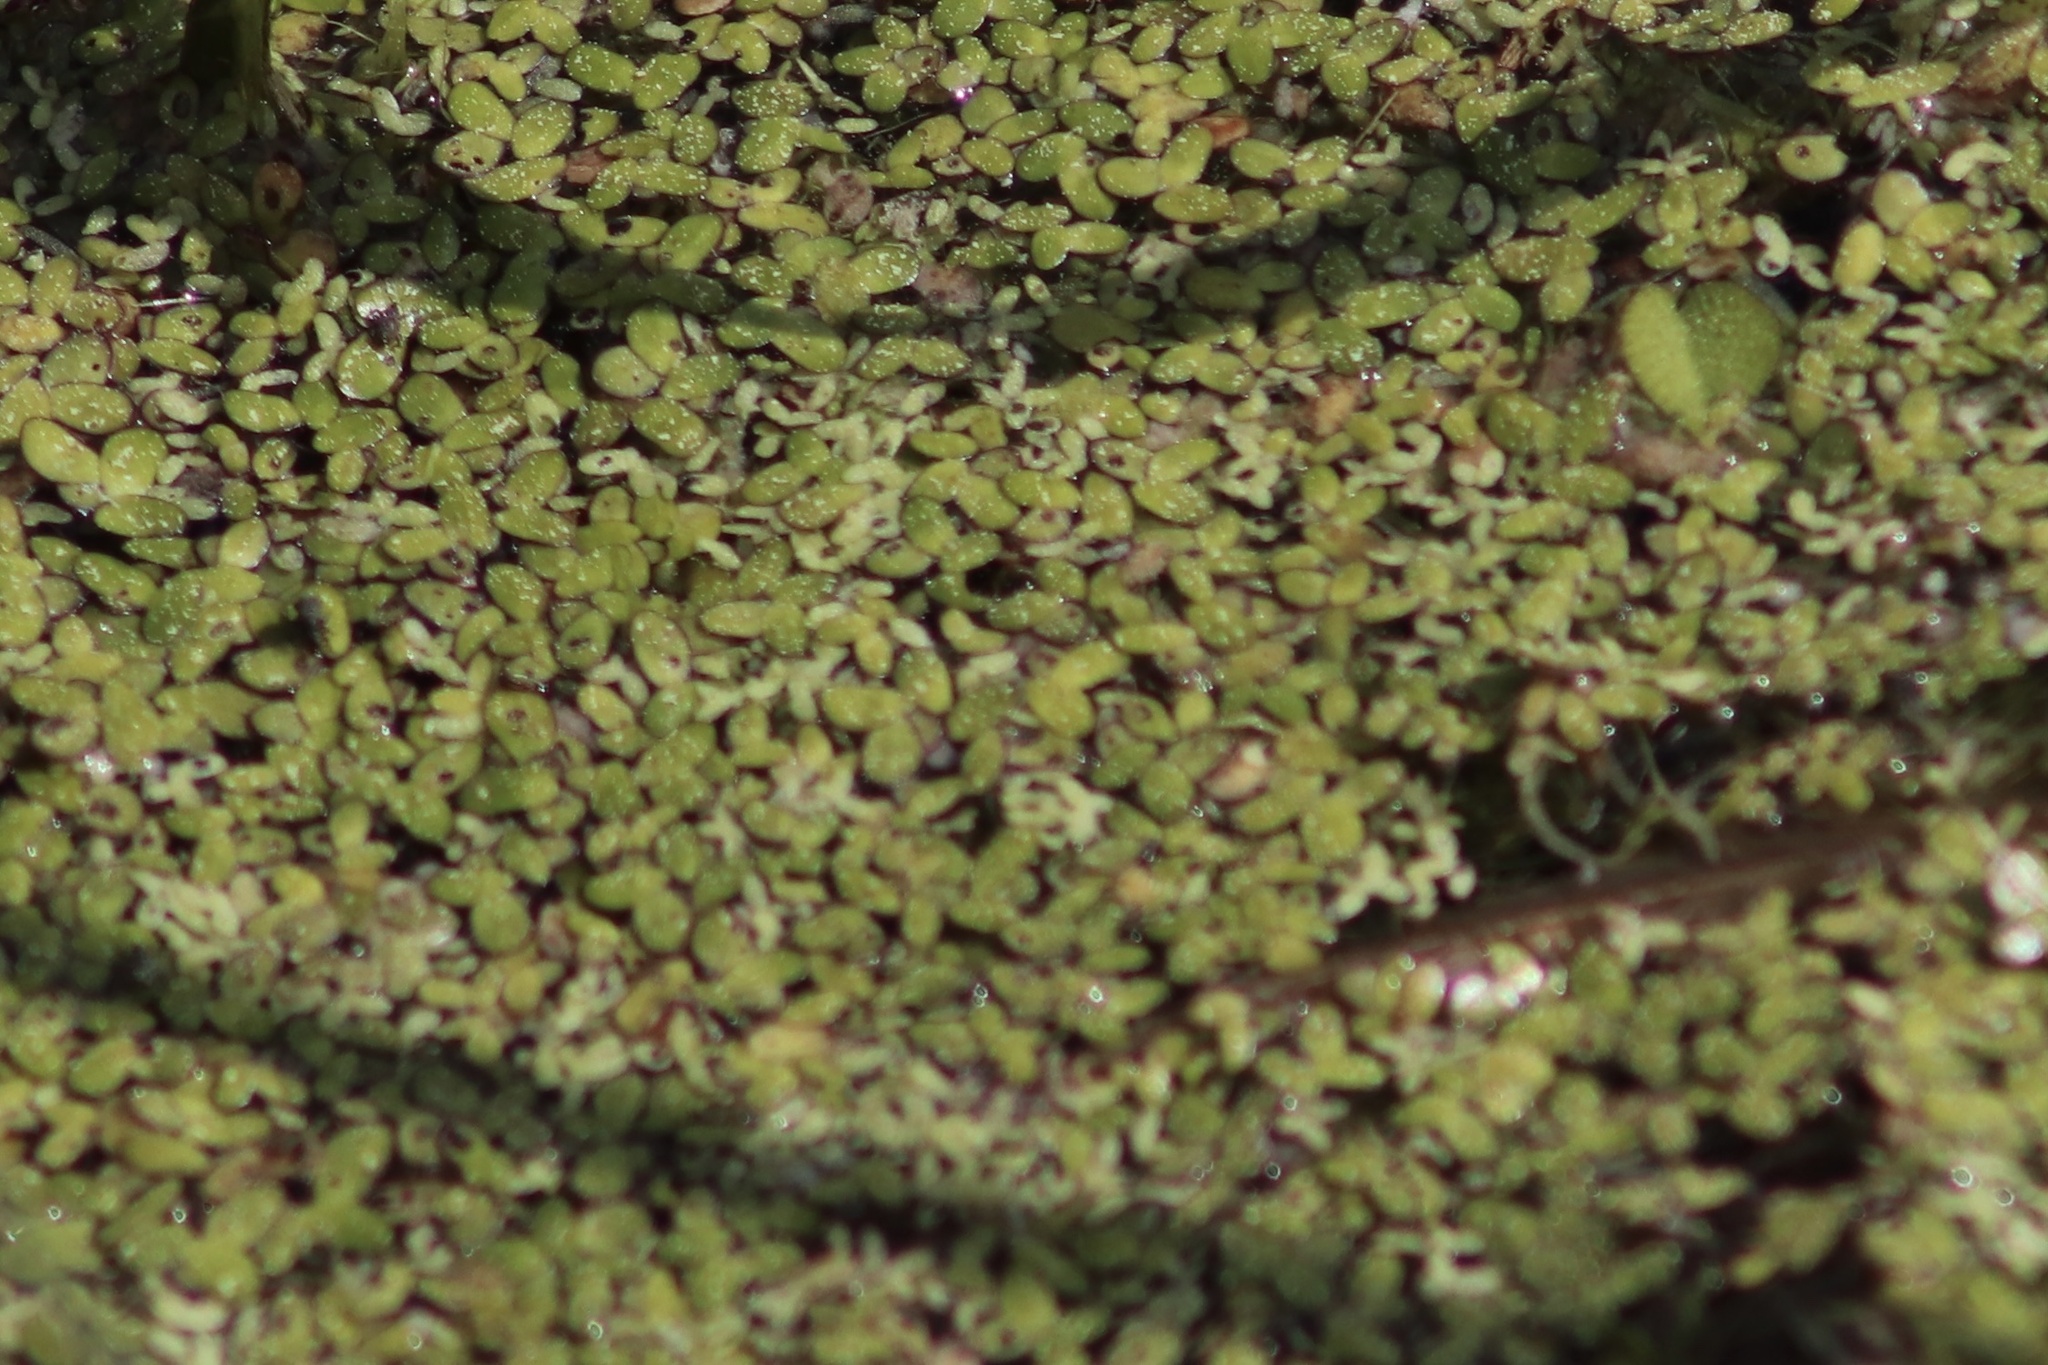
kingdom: Plantae
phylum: Tracheophyta
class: Liliopsida
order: Alismatales
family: Araceae
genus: Spirodela
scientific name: Spirodela punctata
